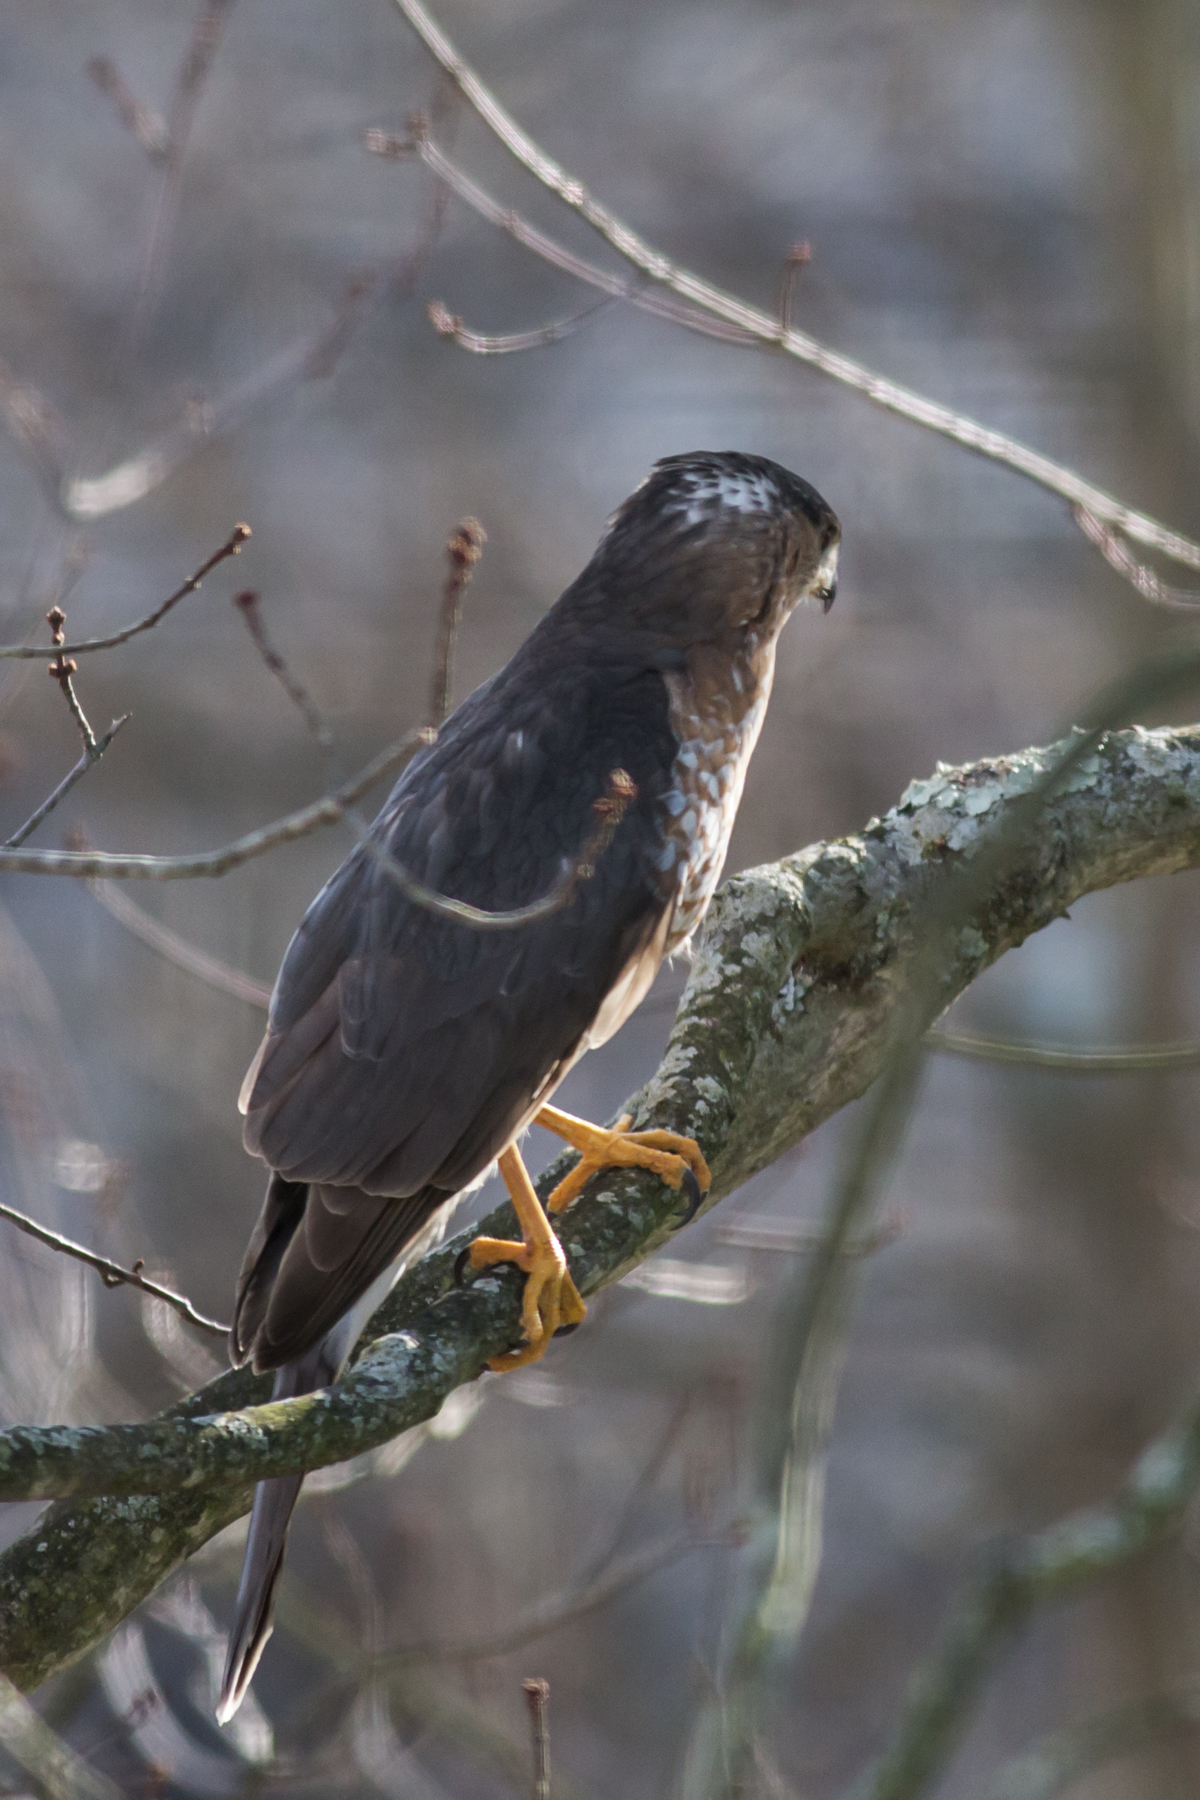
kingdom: Animalia
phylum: Chordata
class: Aves
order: Accipitriformes
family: Accipitridae
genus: Accipiter
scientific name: Accipiter cooperii
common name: Cooper's hawk
